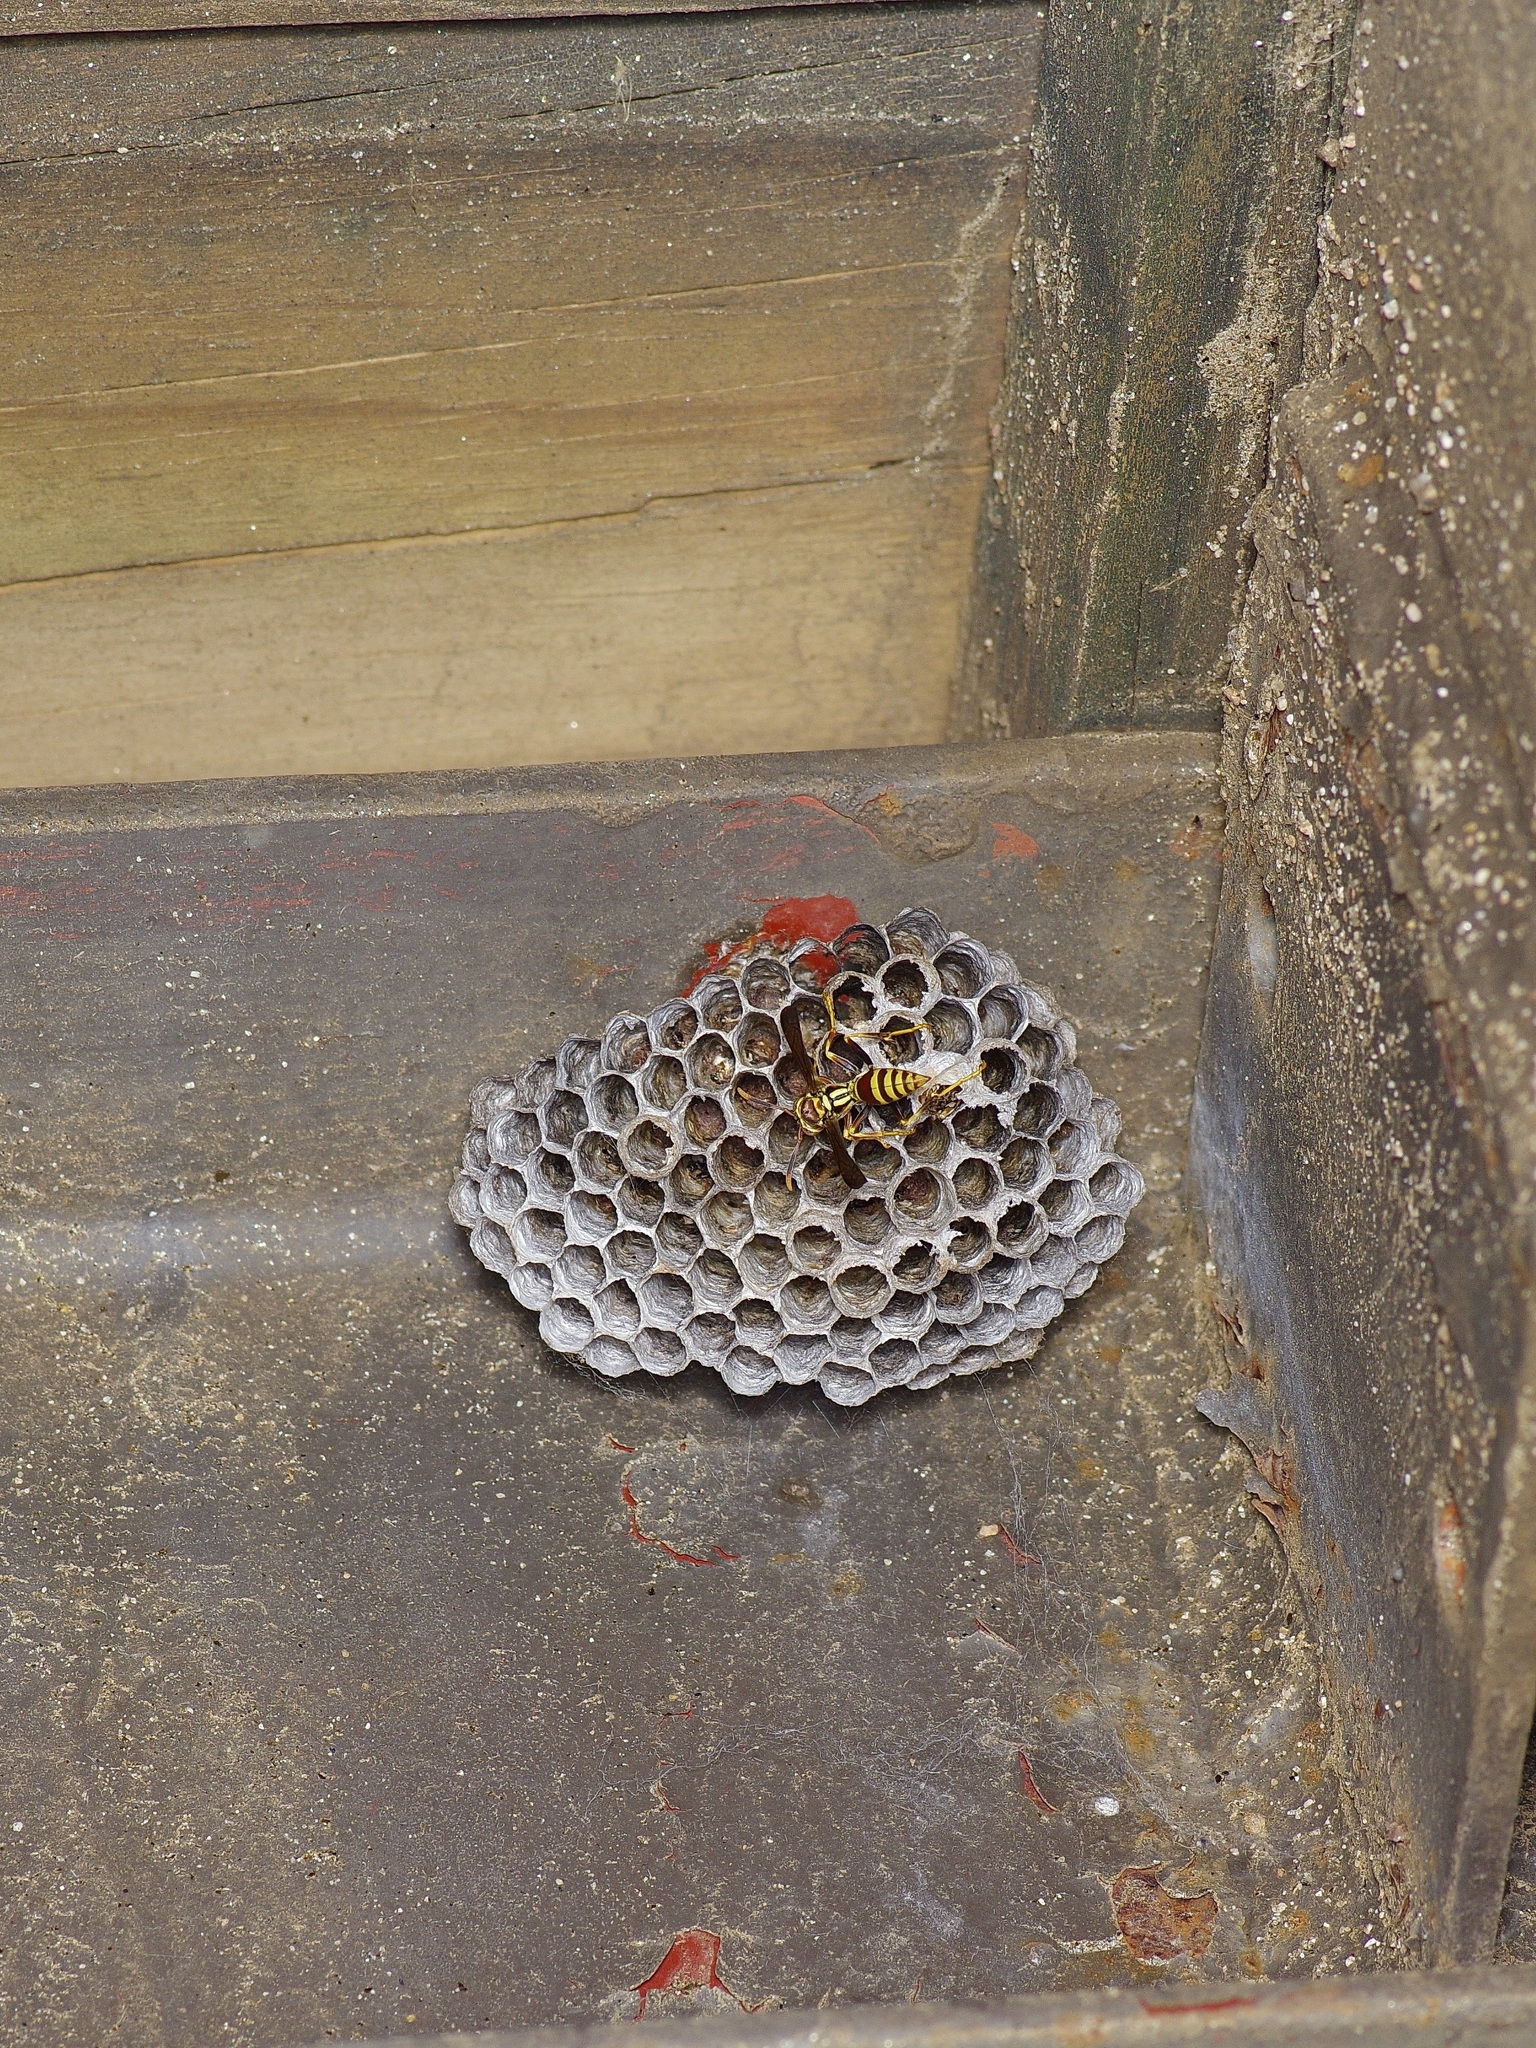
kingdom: Animalia
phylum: Arthropoda
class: Insecta
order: Hymenoptera
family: Eumenidae
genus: Polistes
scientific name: Polistes exclamans
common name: Paper wasp
